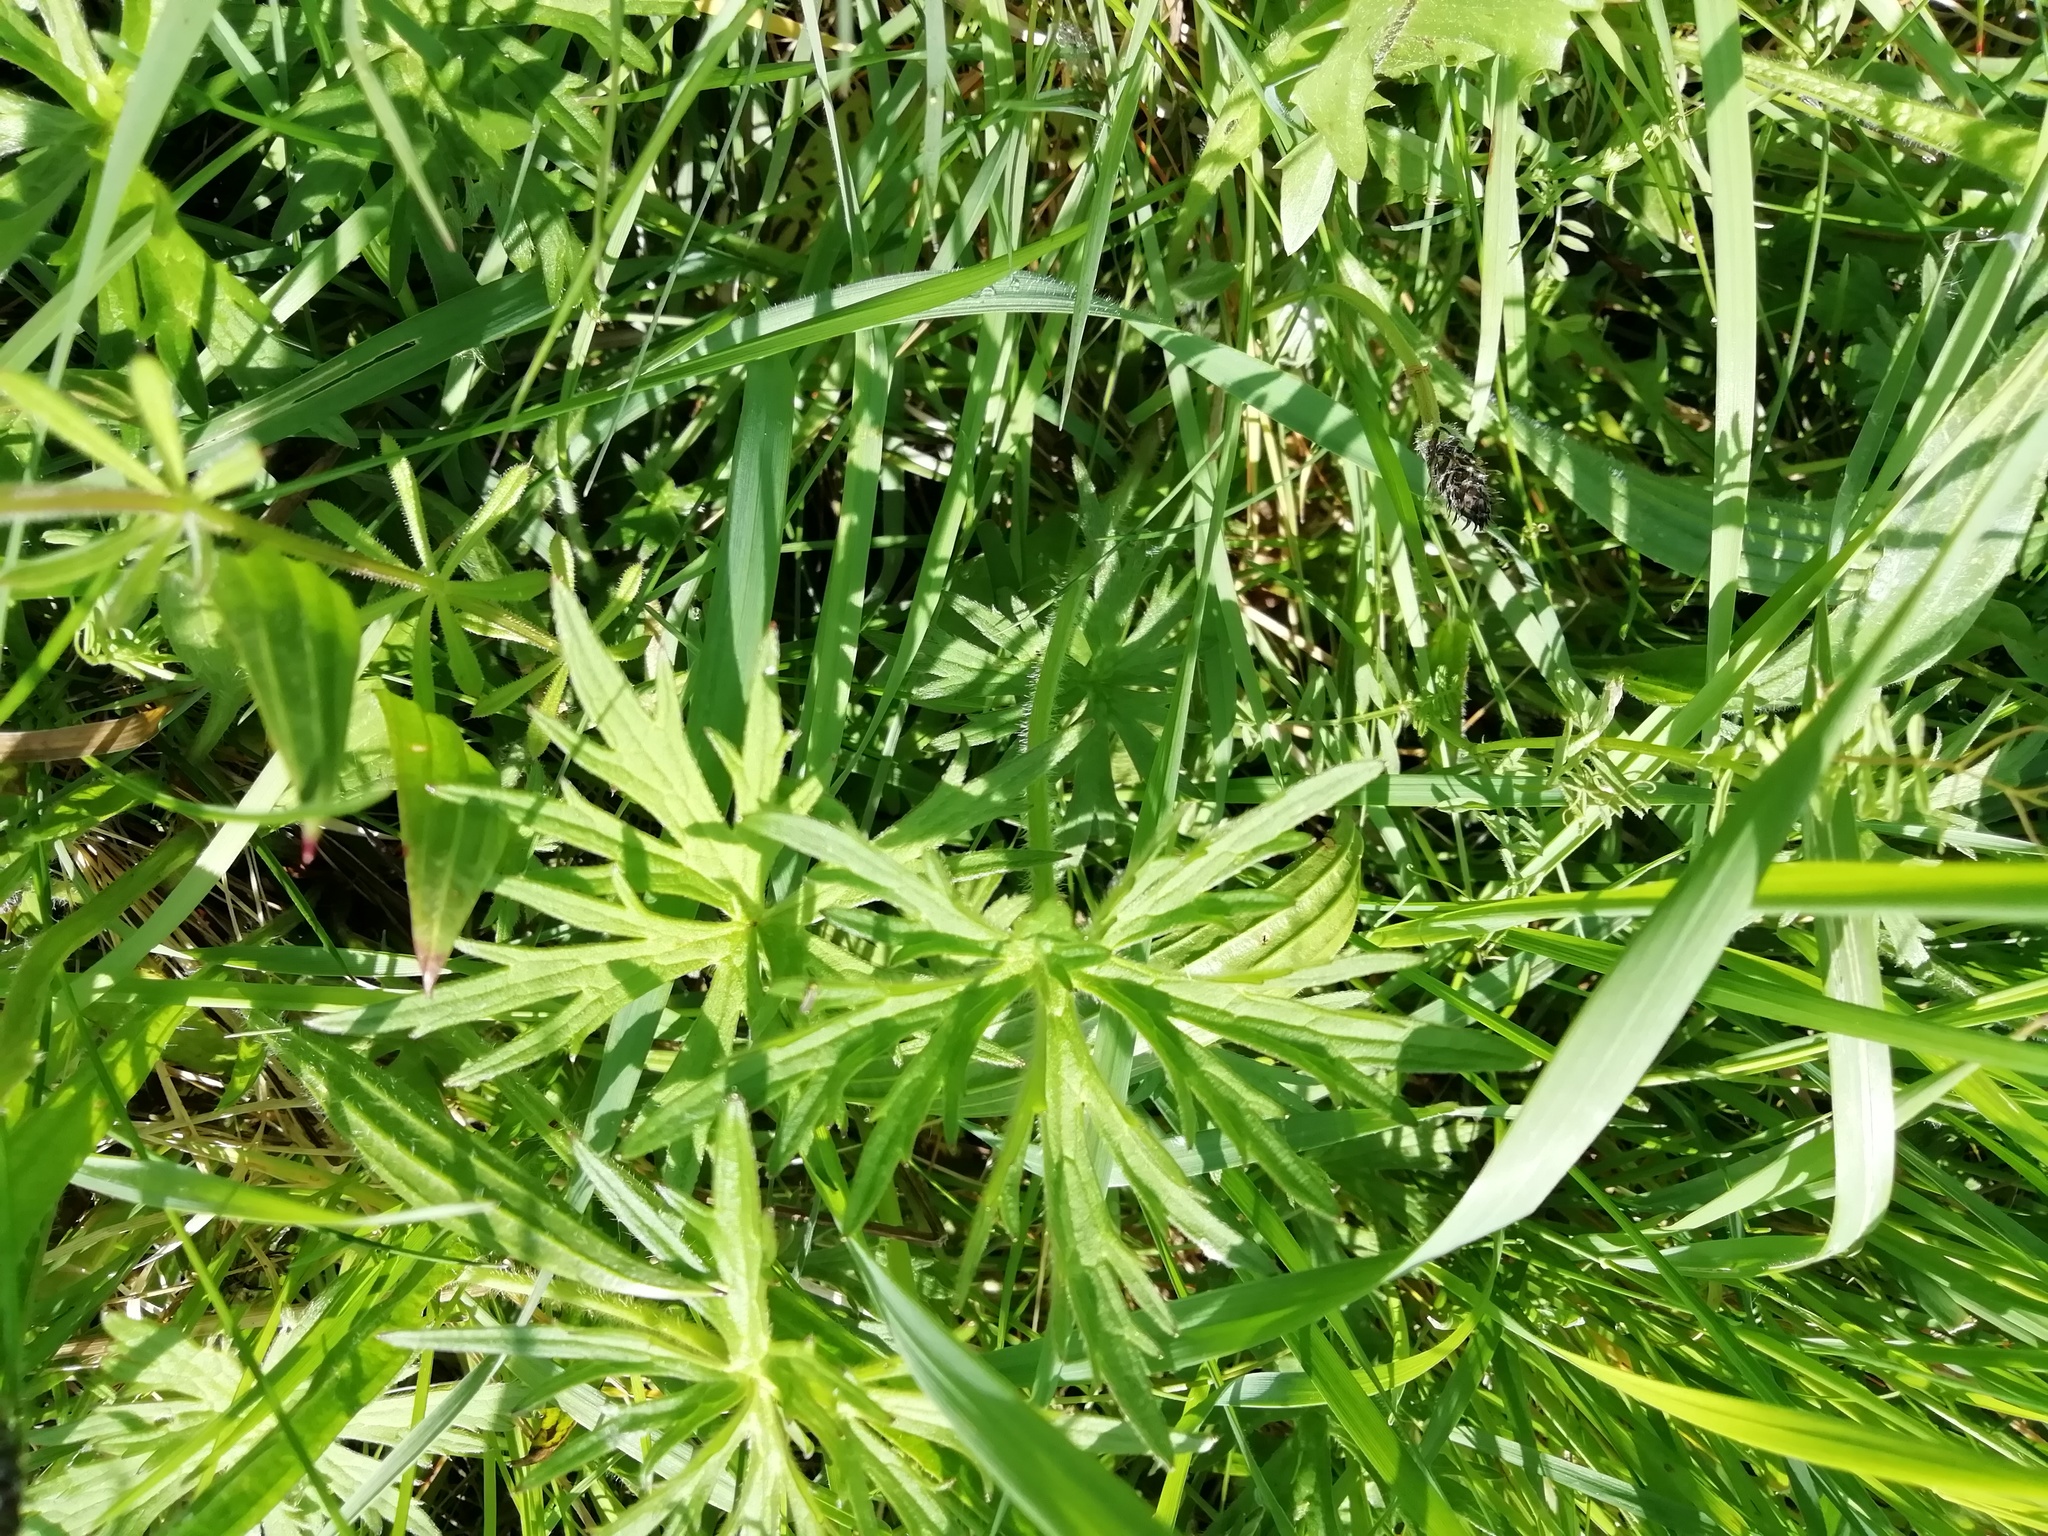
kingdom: Plantae
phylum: Tracheophyta
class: Magnoliopsida
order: Ranunculales
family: Ranunculaceae
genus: Ranunculus
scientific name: Ranunculus acris
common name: Meadow buttercup
